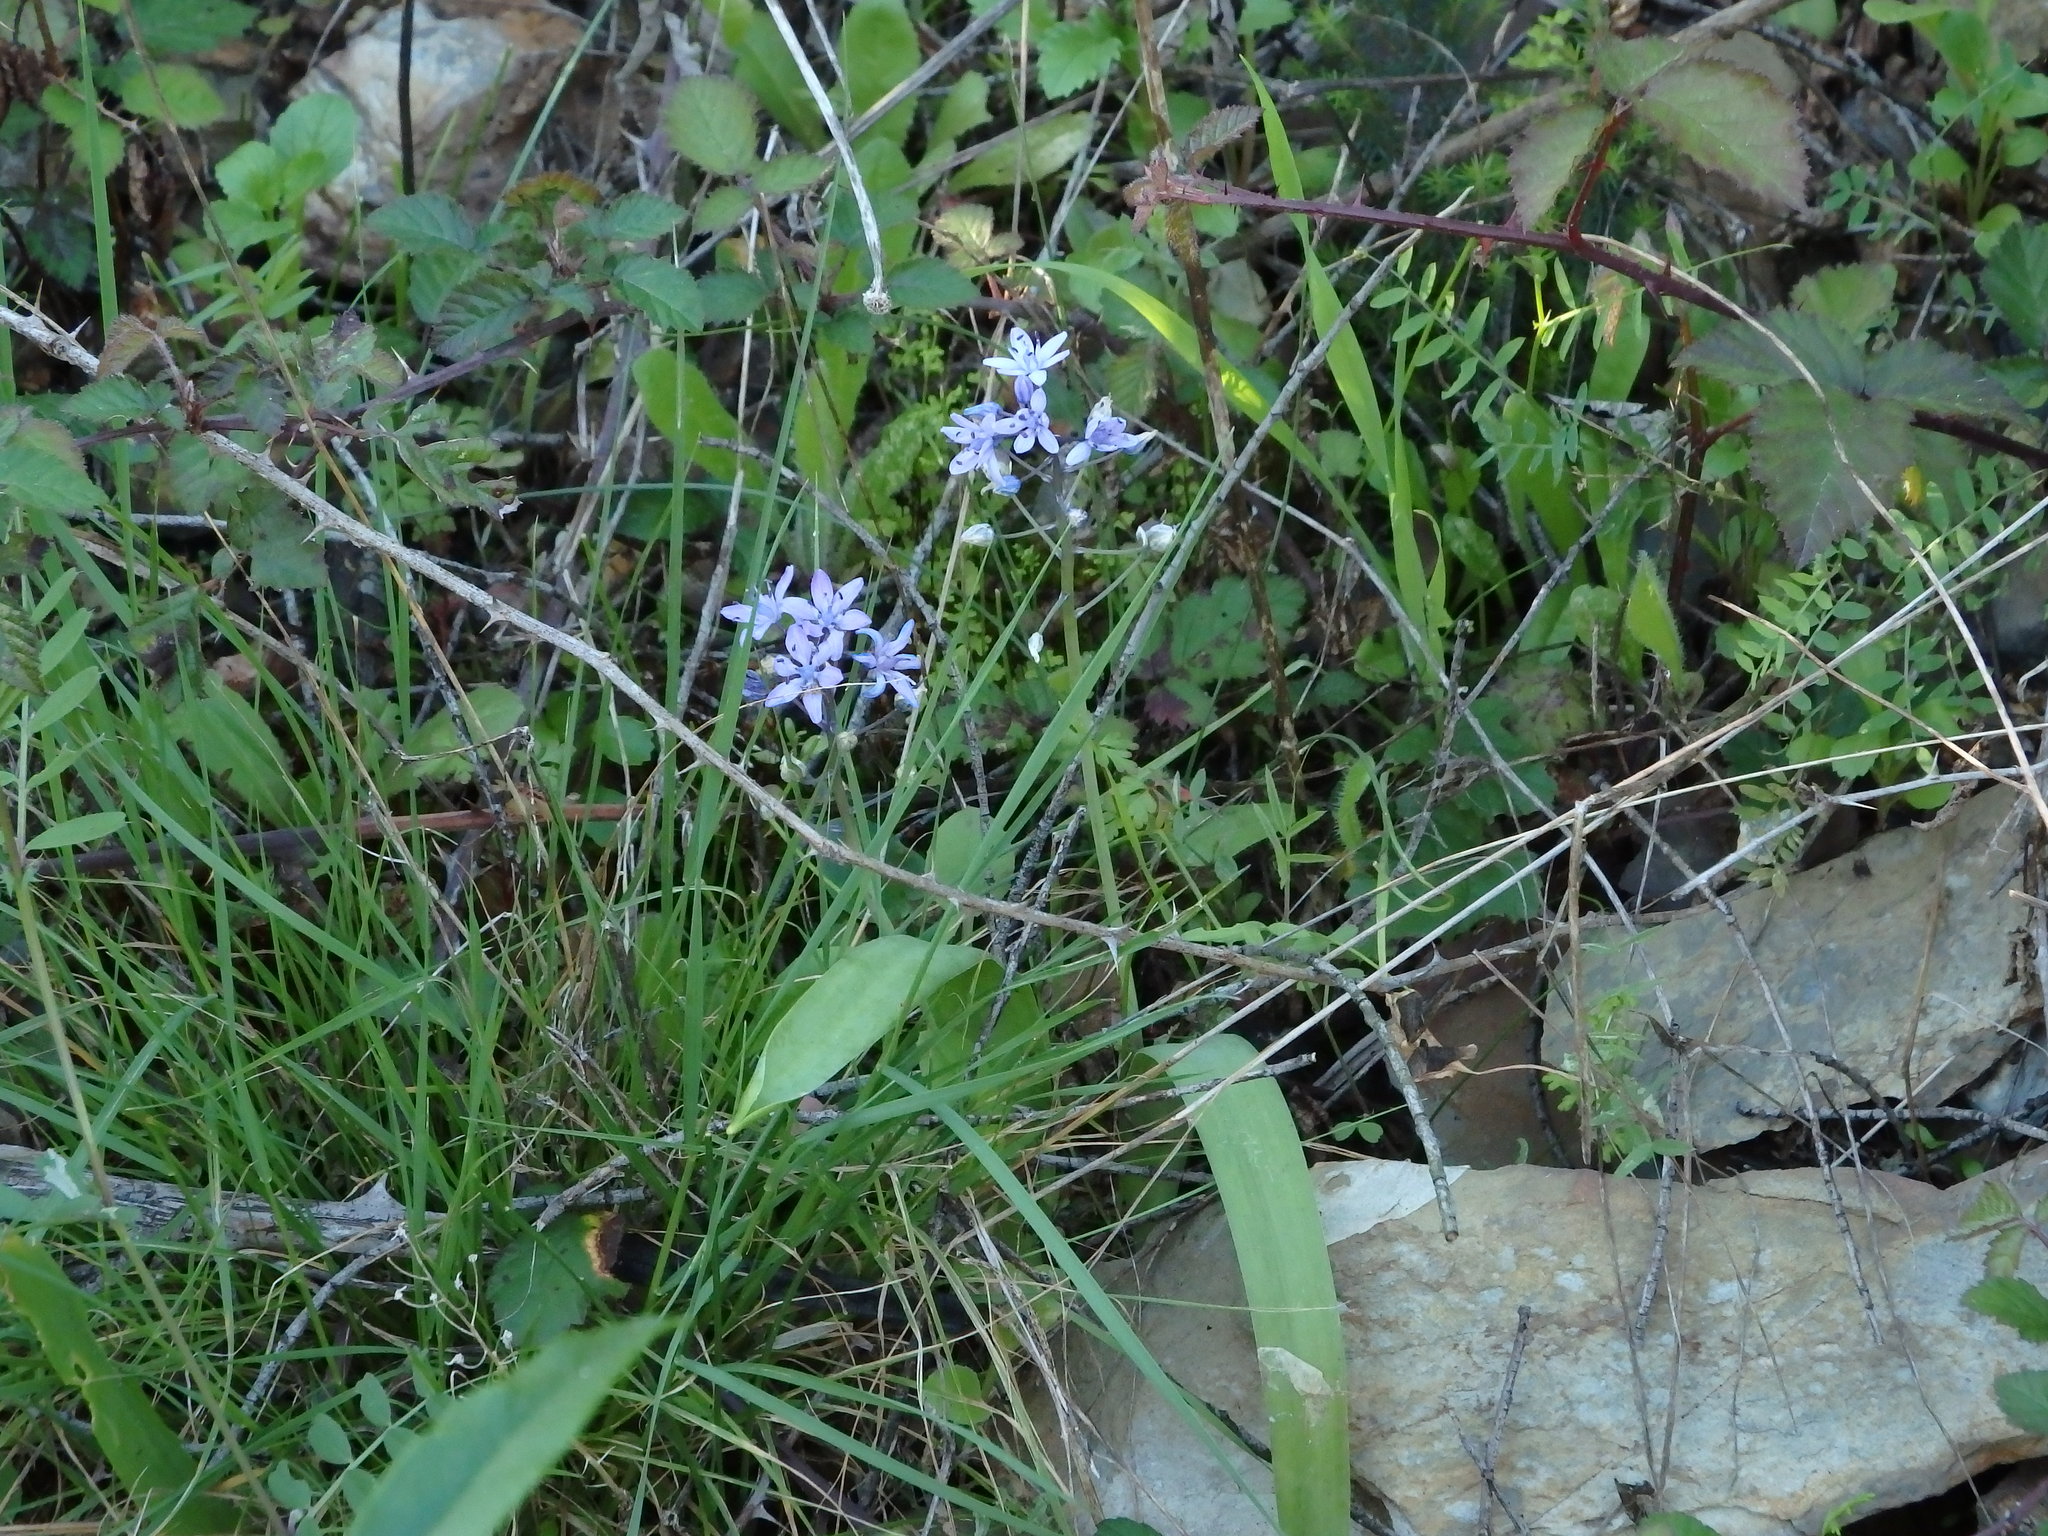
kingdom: Plantae
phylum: Tracheophyta
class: Liliopsida
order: Asparagales
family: Asparagaceae
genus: Scilla
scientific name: Scilla monophyllos
